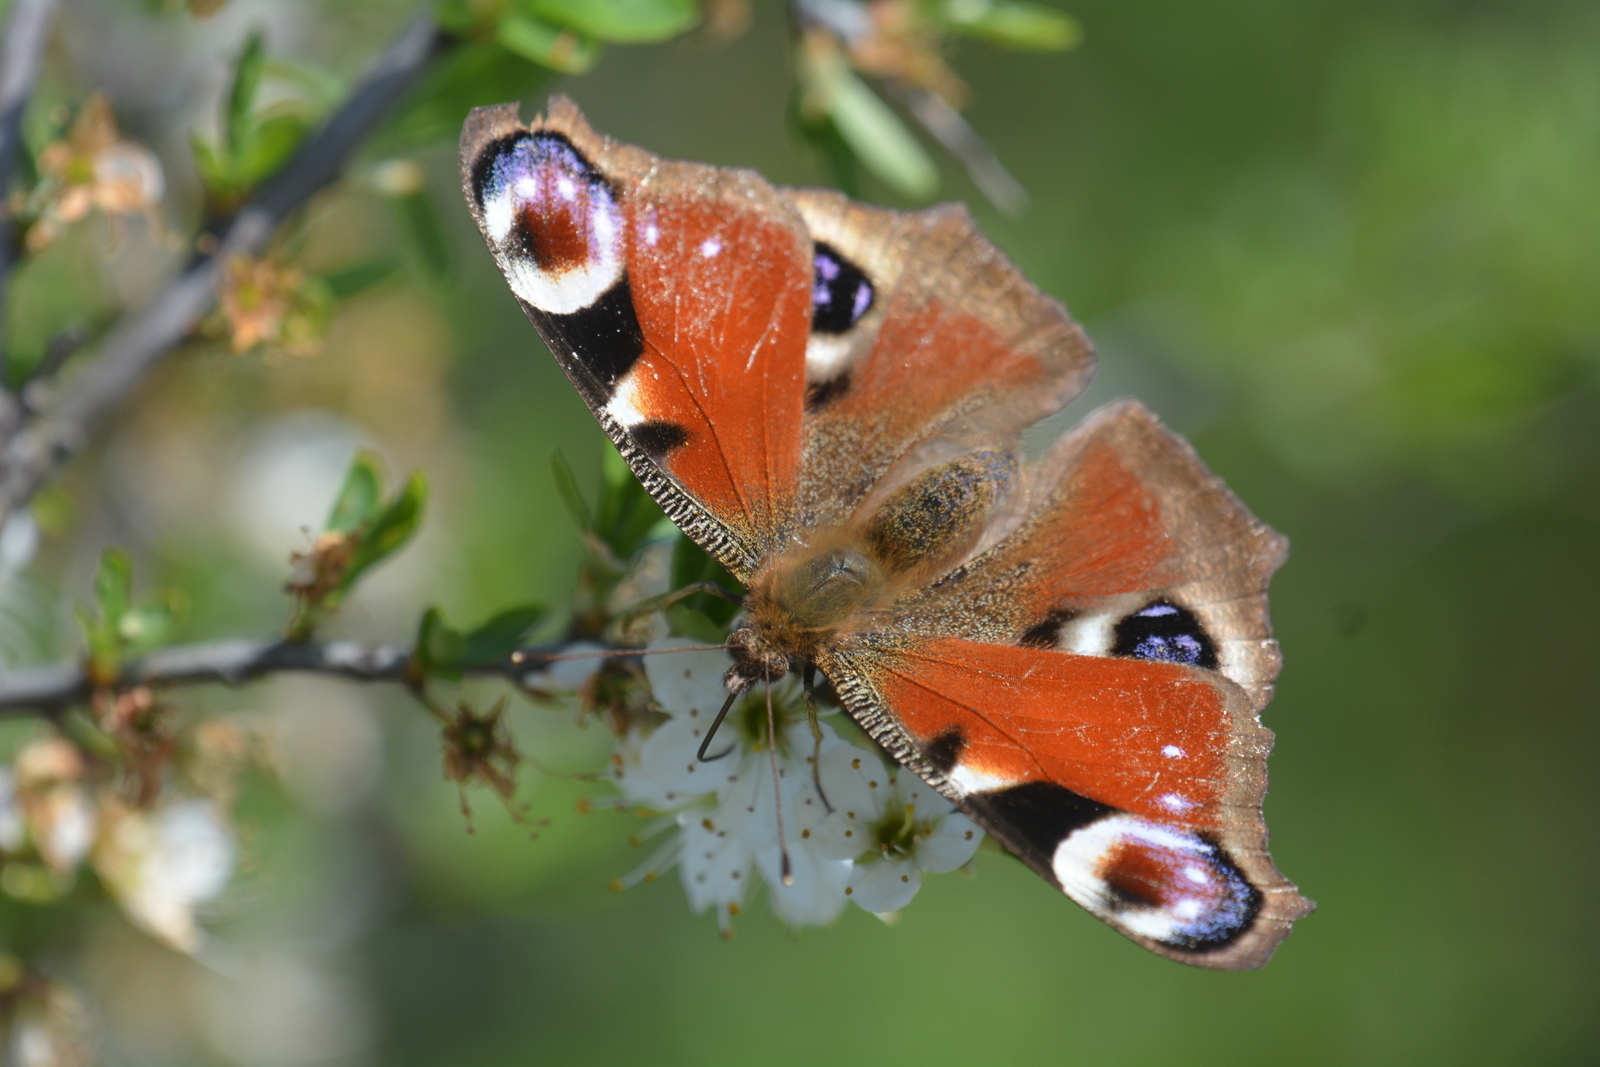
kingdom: Animalia
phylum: Arthropoda
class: Insecta
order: Lepidoptera
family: Nymphalidae
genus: Aglais
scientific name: Aglais io
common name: Peacock
